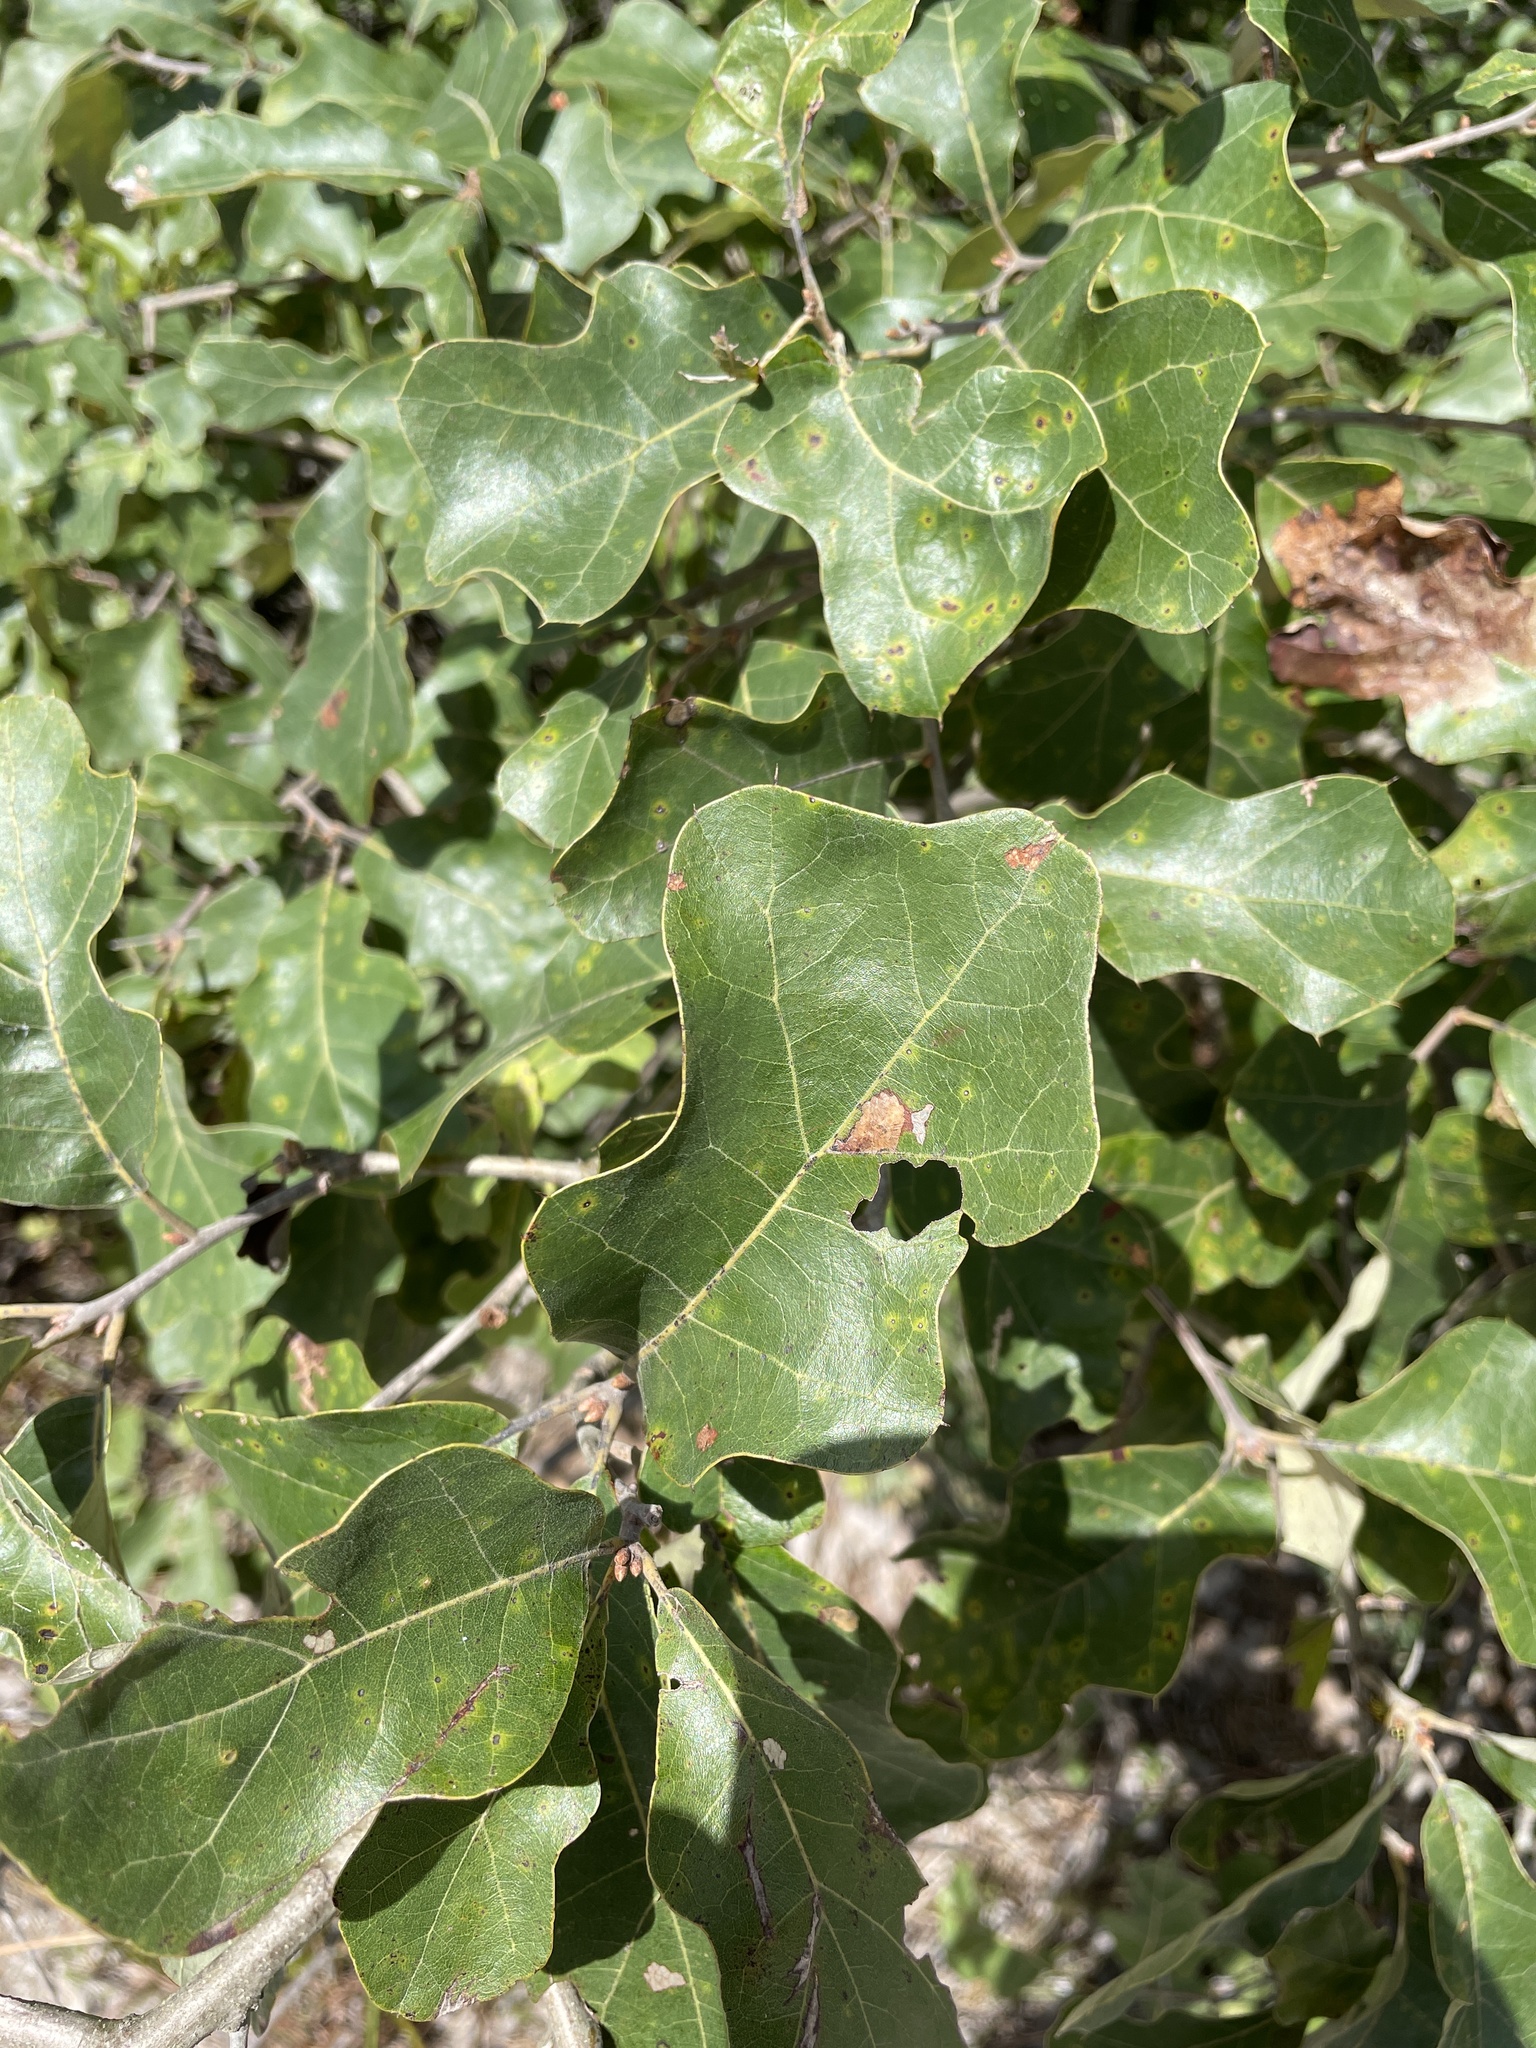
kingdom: Plantae
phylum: Tracheophyta
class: Magnoliopsida
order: Fagales
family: Fagaceae
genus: Quercus
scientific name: Quercus ilicifolia
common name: Bear oak
